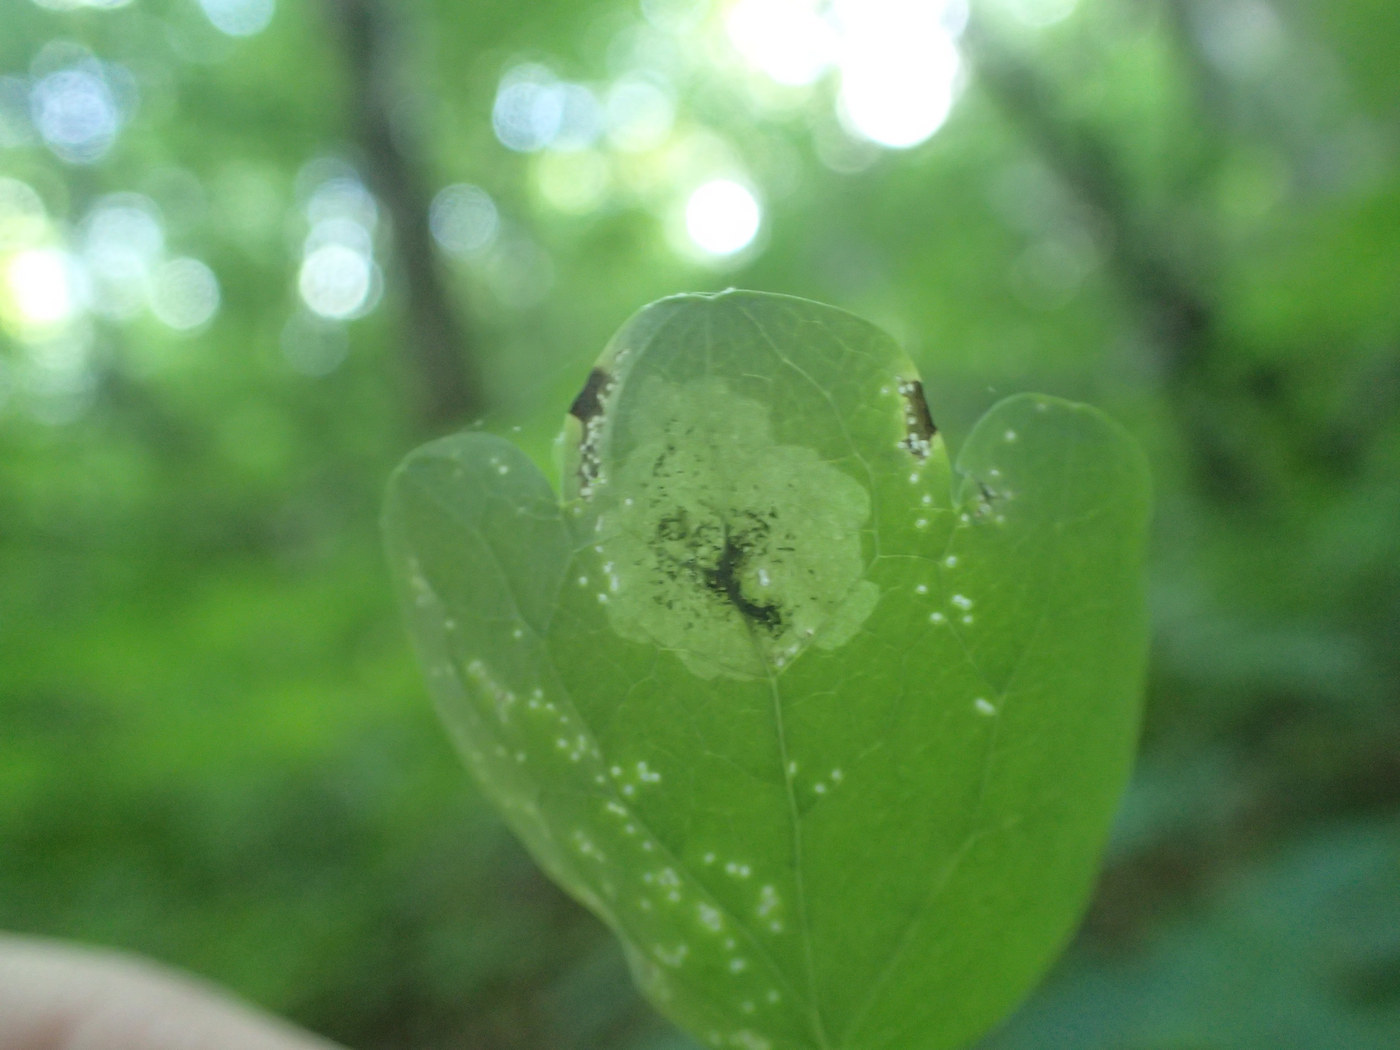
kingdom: Animalia
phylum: Arthropoda
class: Insecta
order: Diptera
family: Agromyzidae
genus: Phytomyza
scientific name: Phytomyza plumiseta
